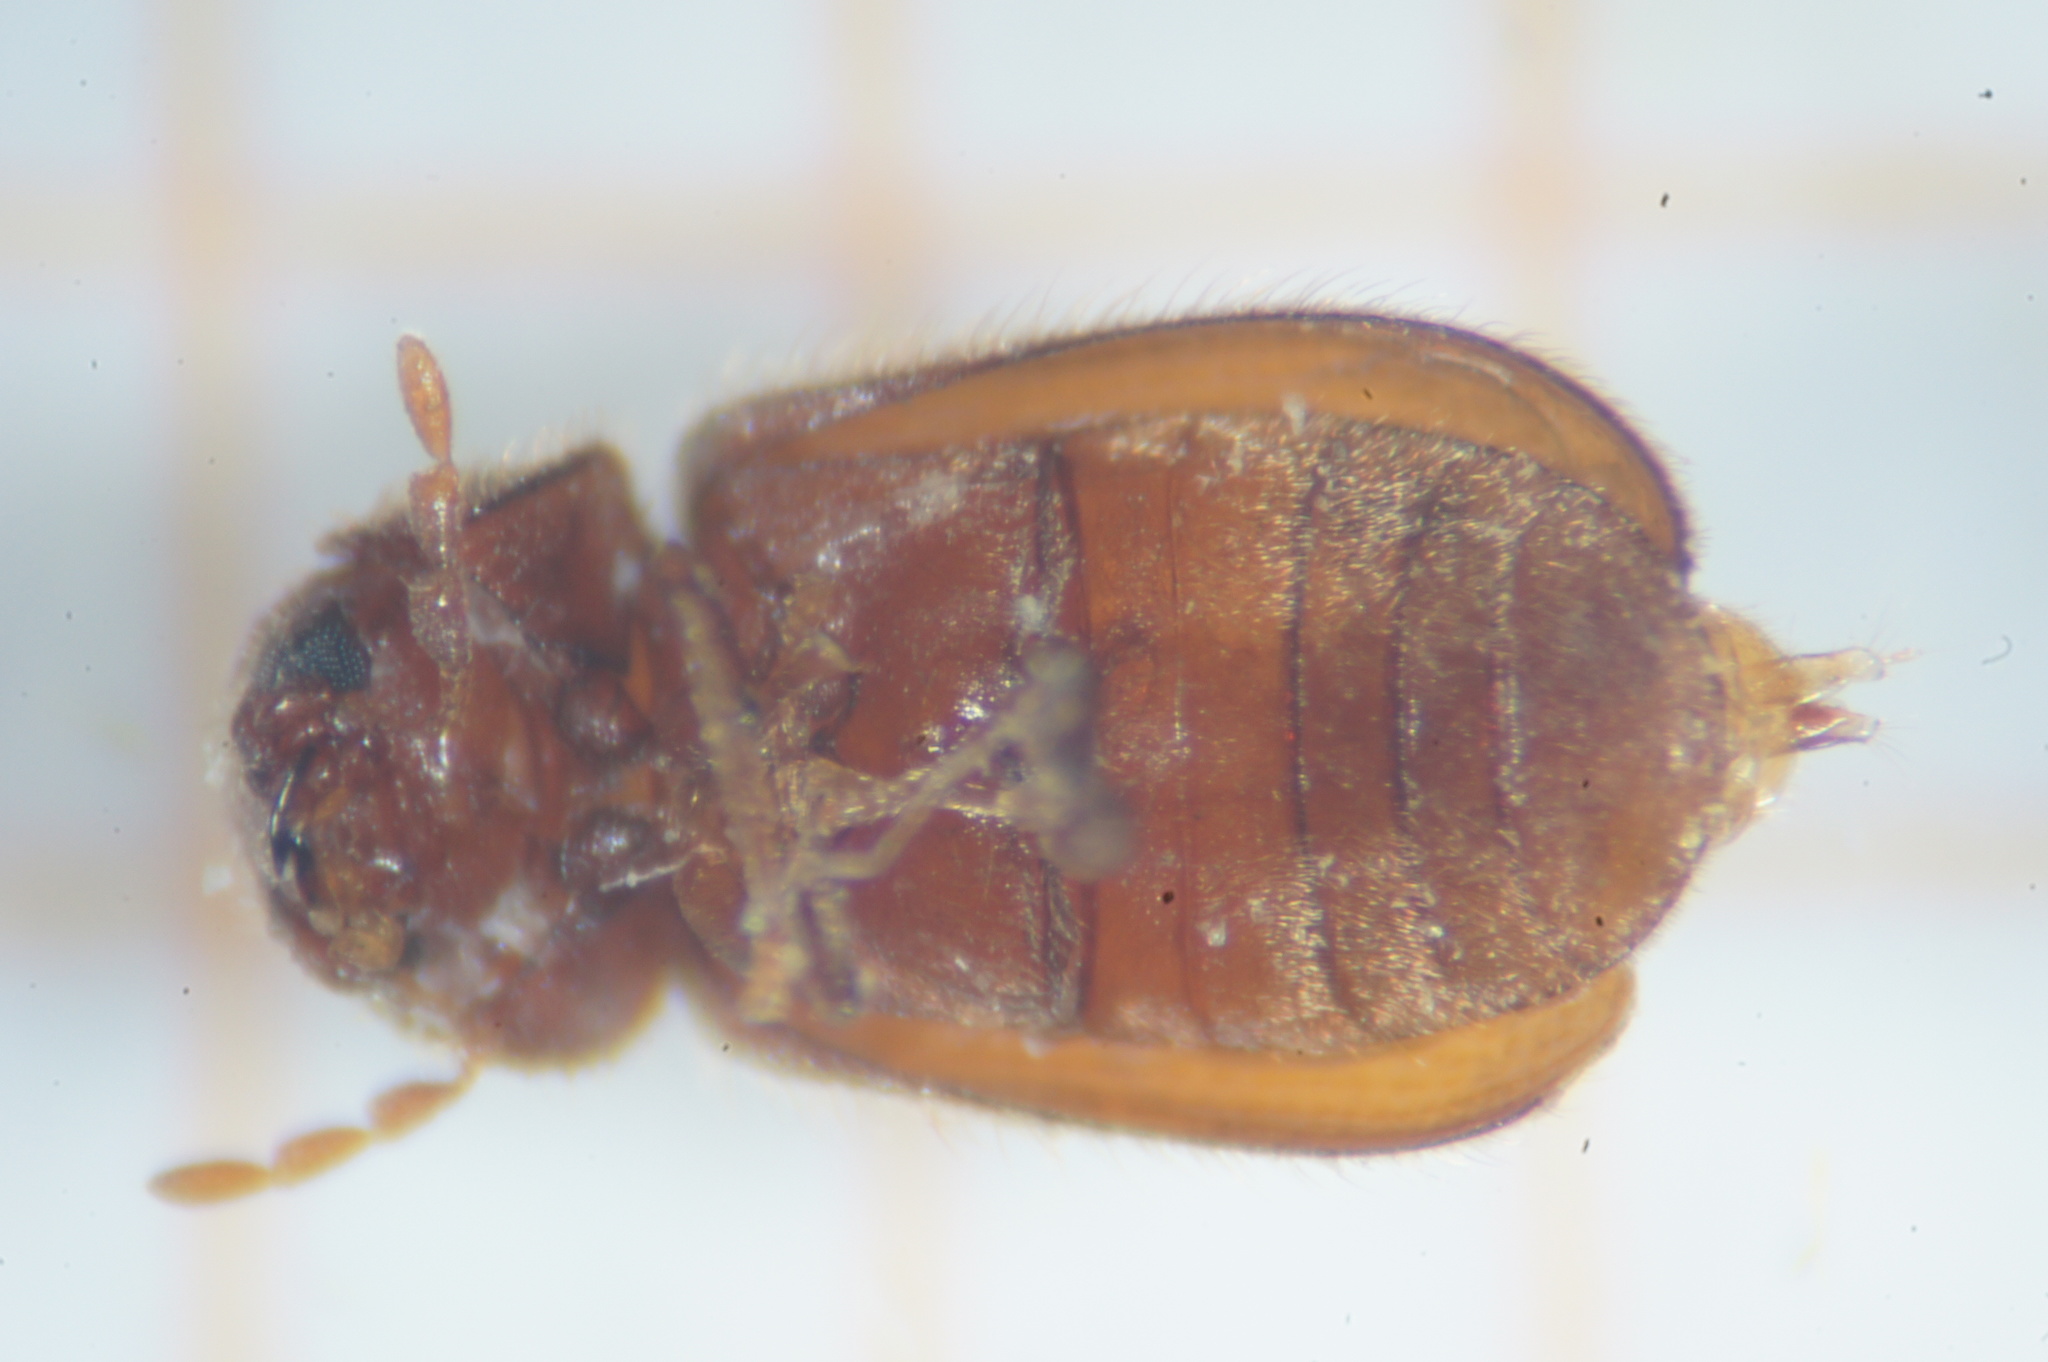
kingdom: Animalia
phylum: Arthropoda
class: Insecta
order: Coleoptera
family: Anobiidae
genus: Stegobium
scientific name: Stegobium paniceum
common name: Drugstore beetle
